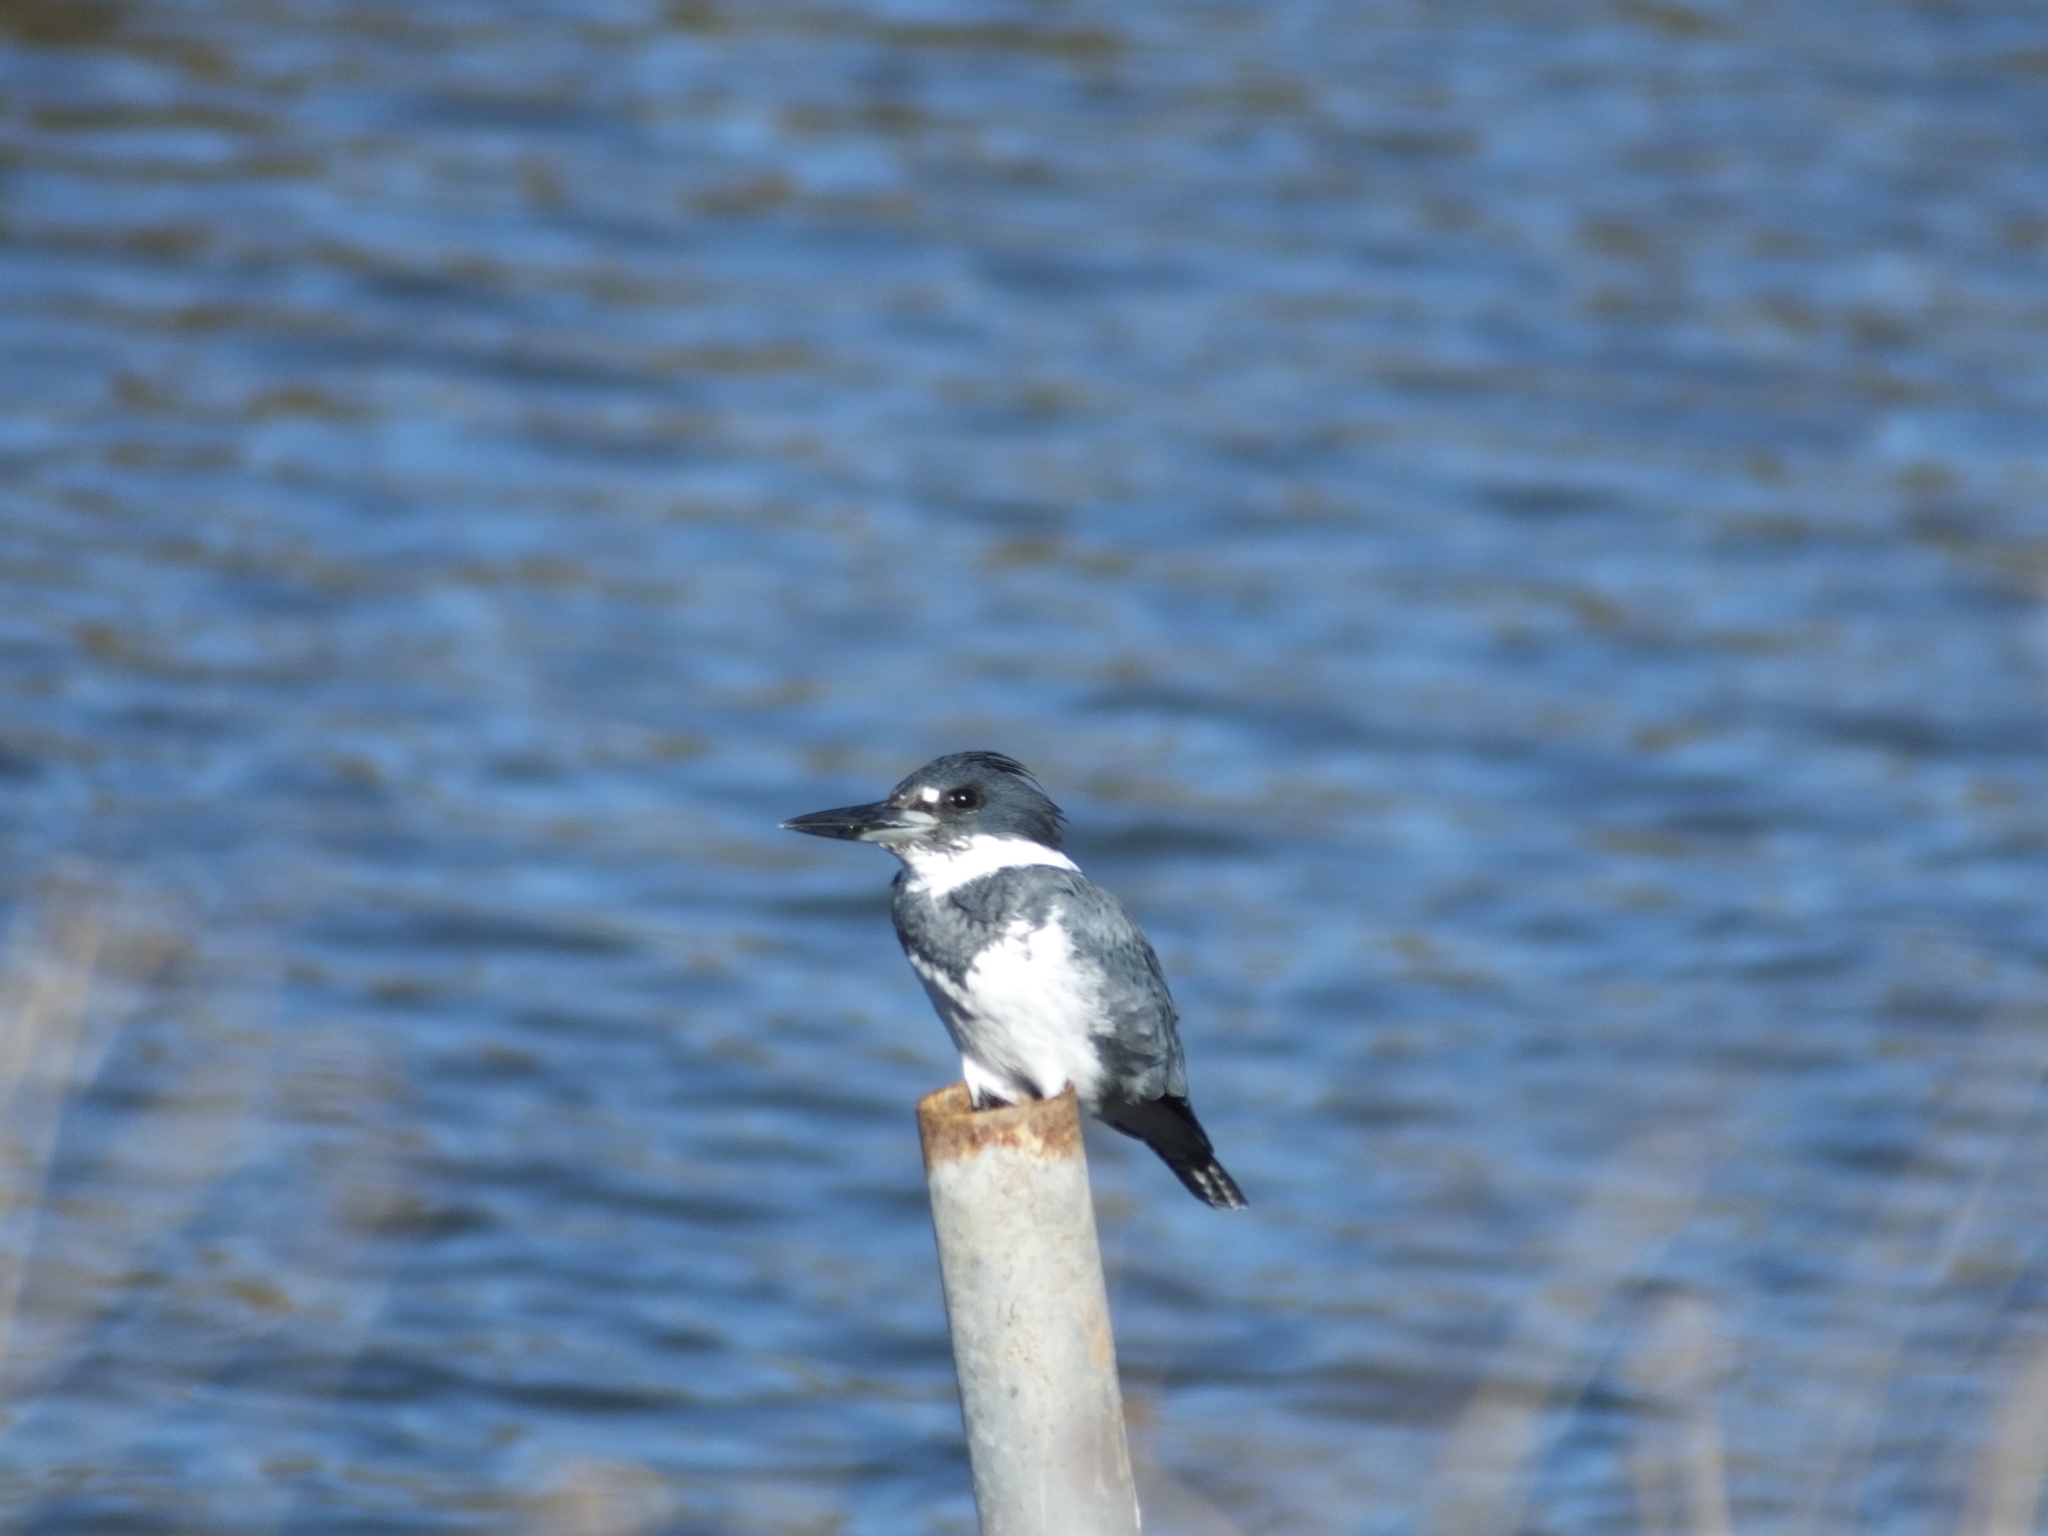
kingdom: Animalia
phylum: Chordata
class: Aves
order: Coraciiformes
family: Alcedinidae
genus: Megaceryle
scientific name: Megaceryle alcyon
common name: Belted kingfisher
